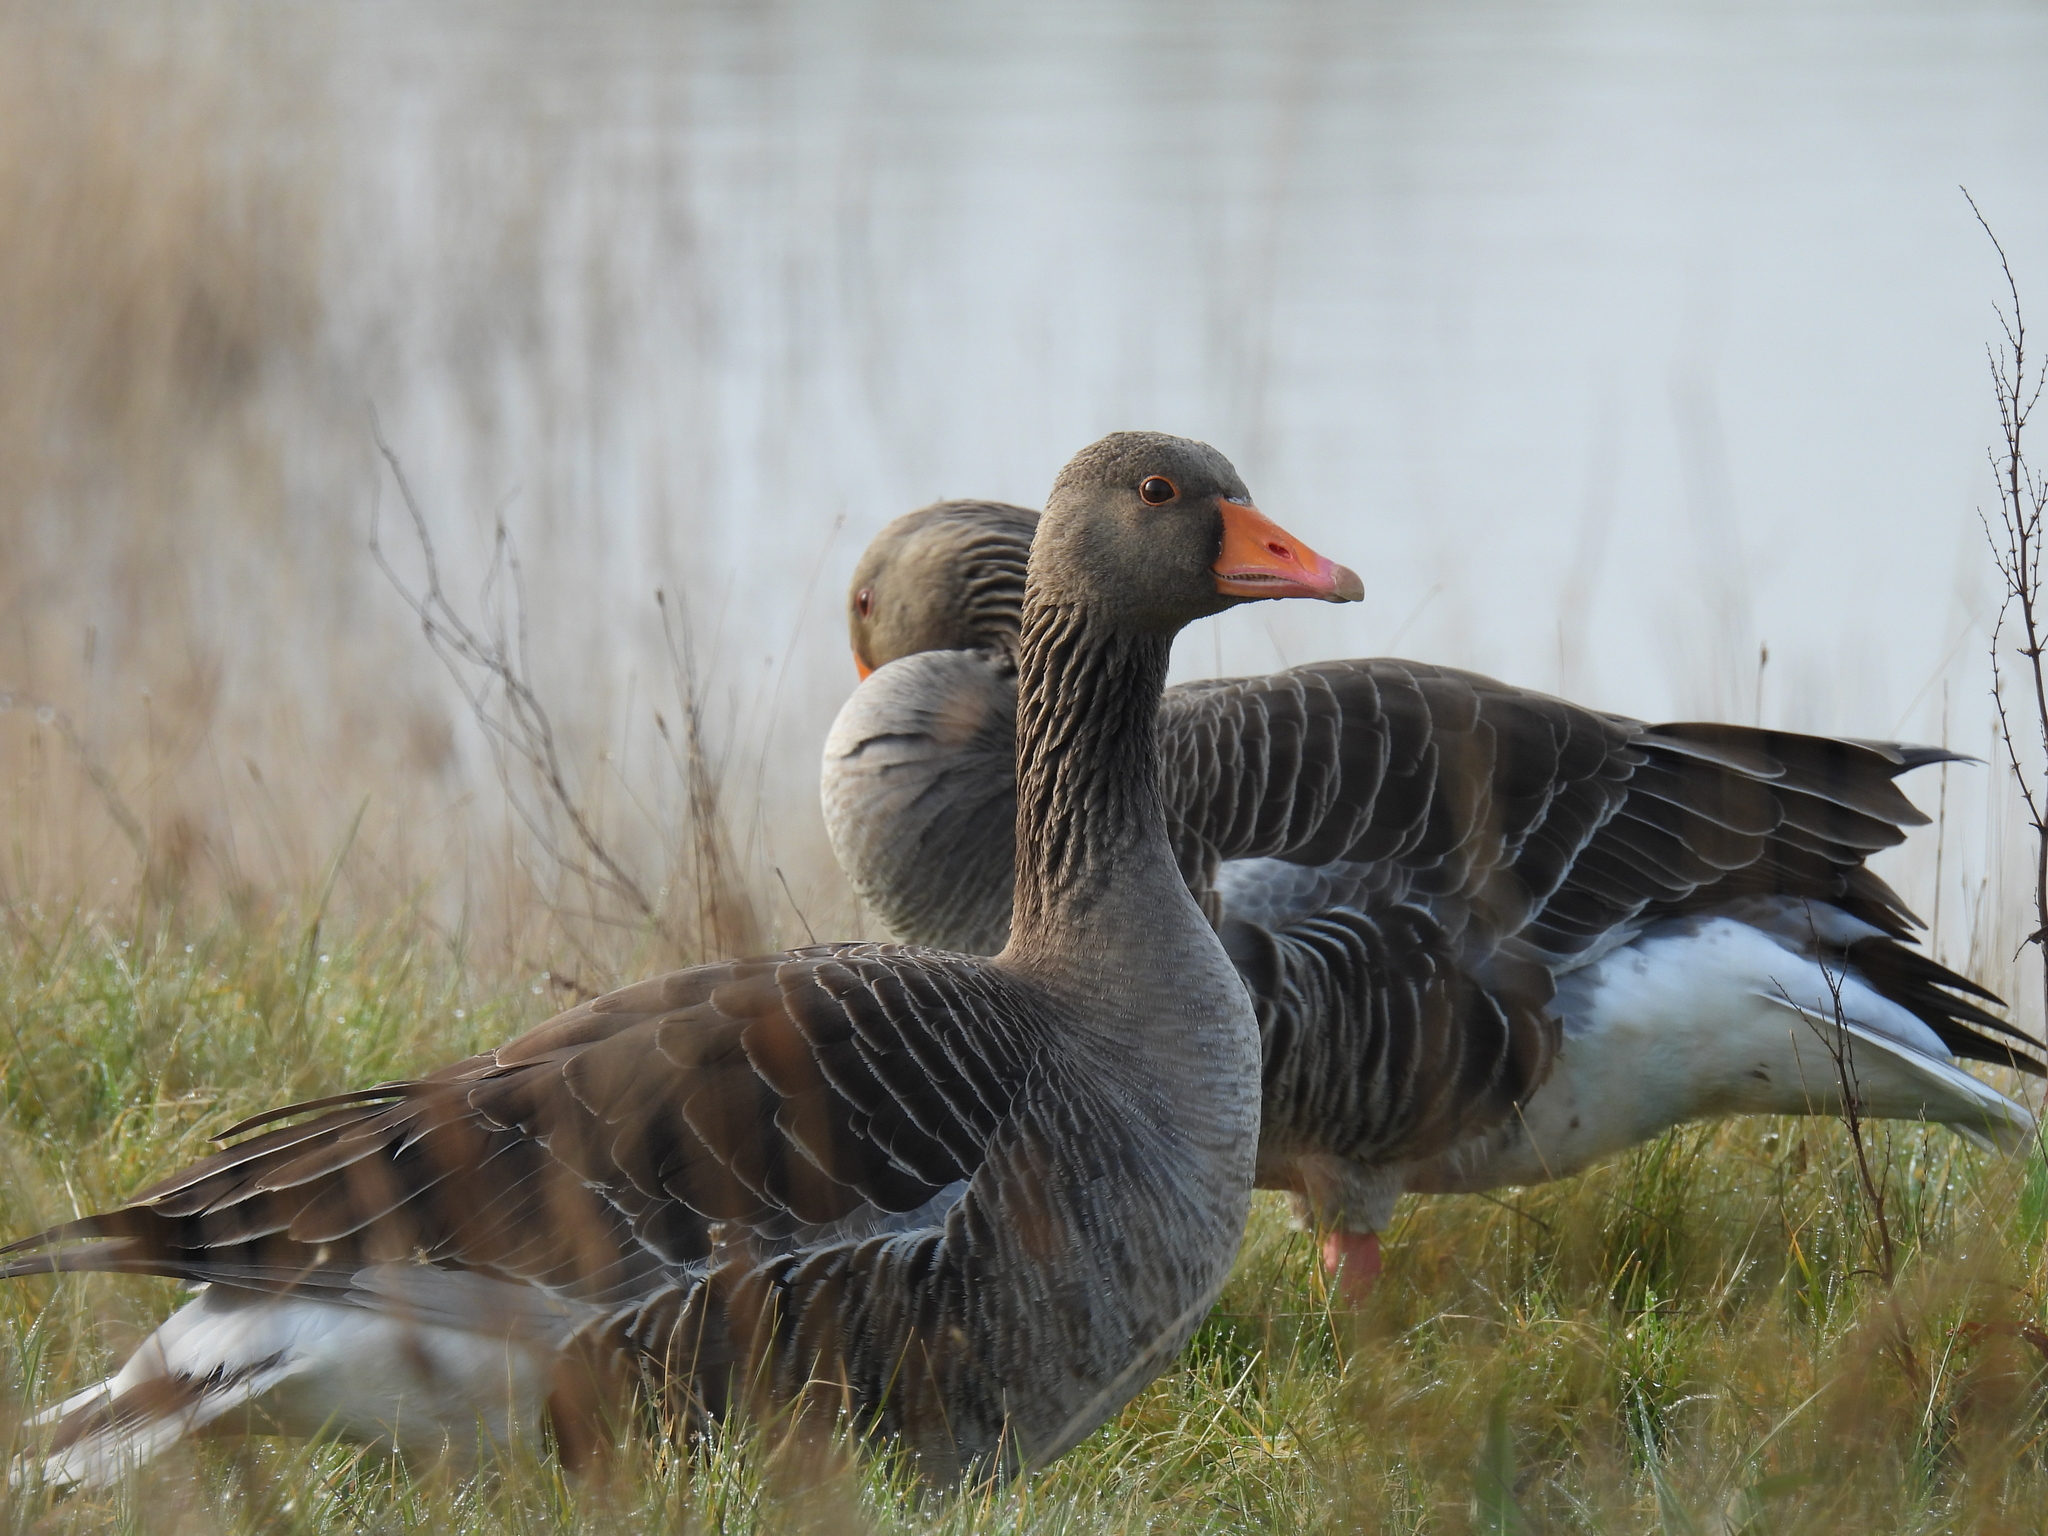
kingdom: Animalia
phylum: Chordata
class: Aves
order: Anseriformes
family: Anatidae
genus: Anser
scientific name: Anser anser
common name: Greylag goose
